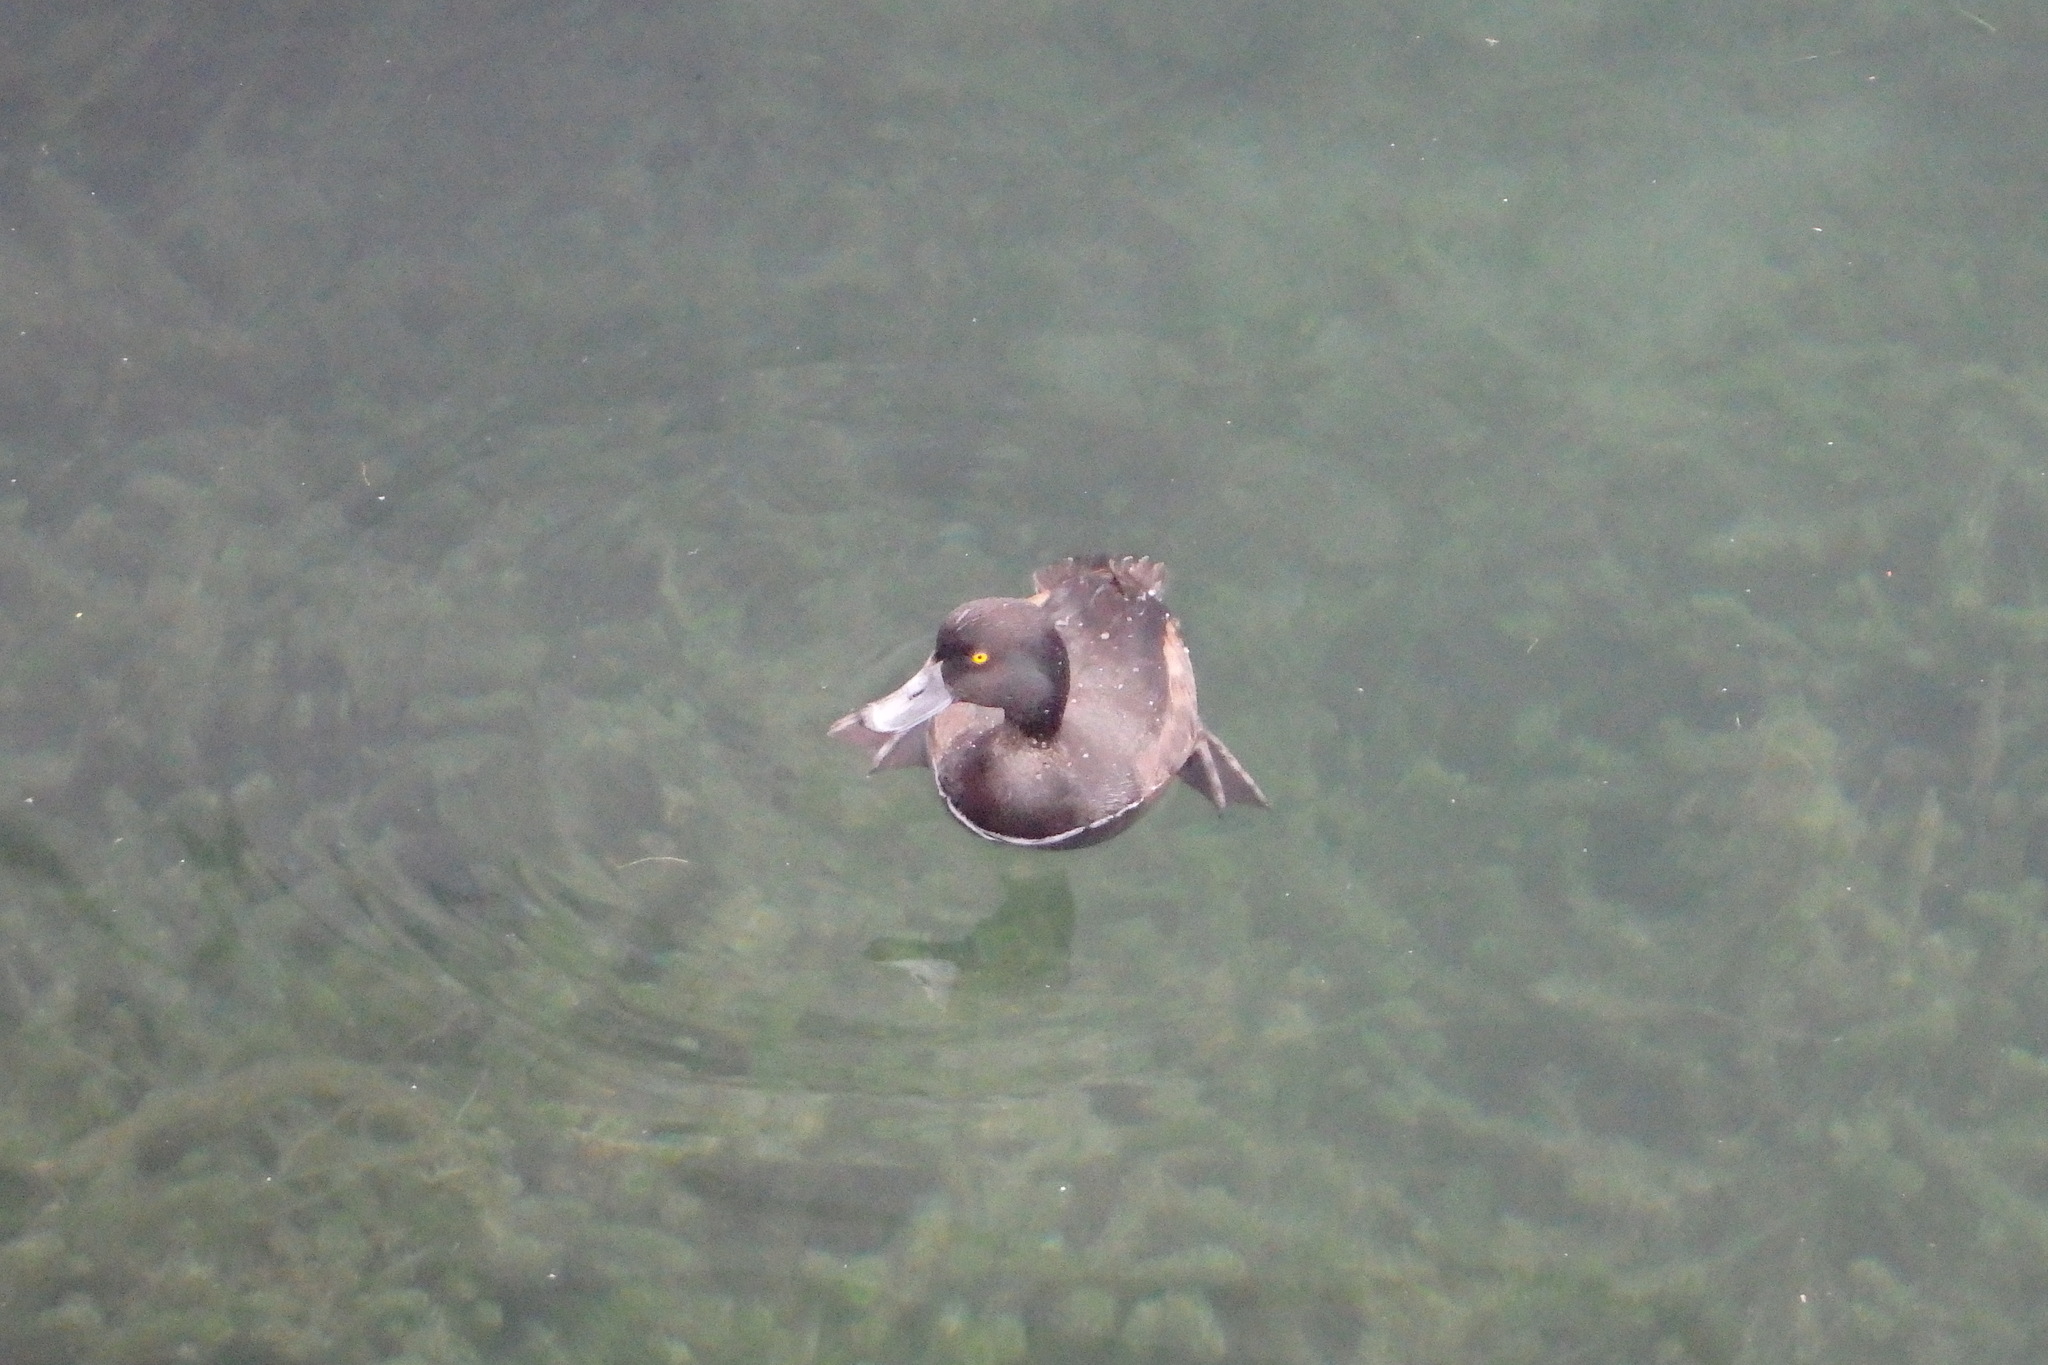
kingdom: Animalia
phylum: Chordata
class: Aves
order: Anseriformes
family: Anatidae
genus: Aythya
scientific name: Aythya novaeseelandiae
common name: New zealand scaup
